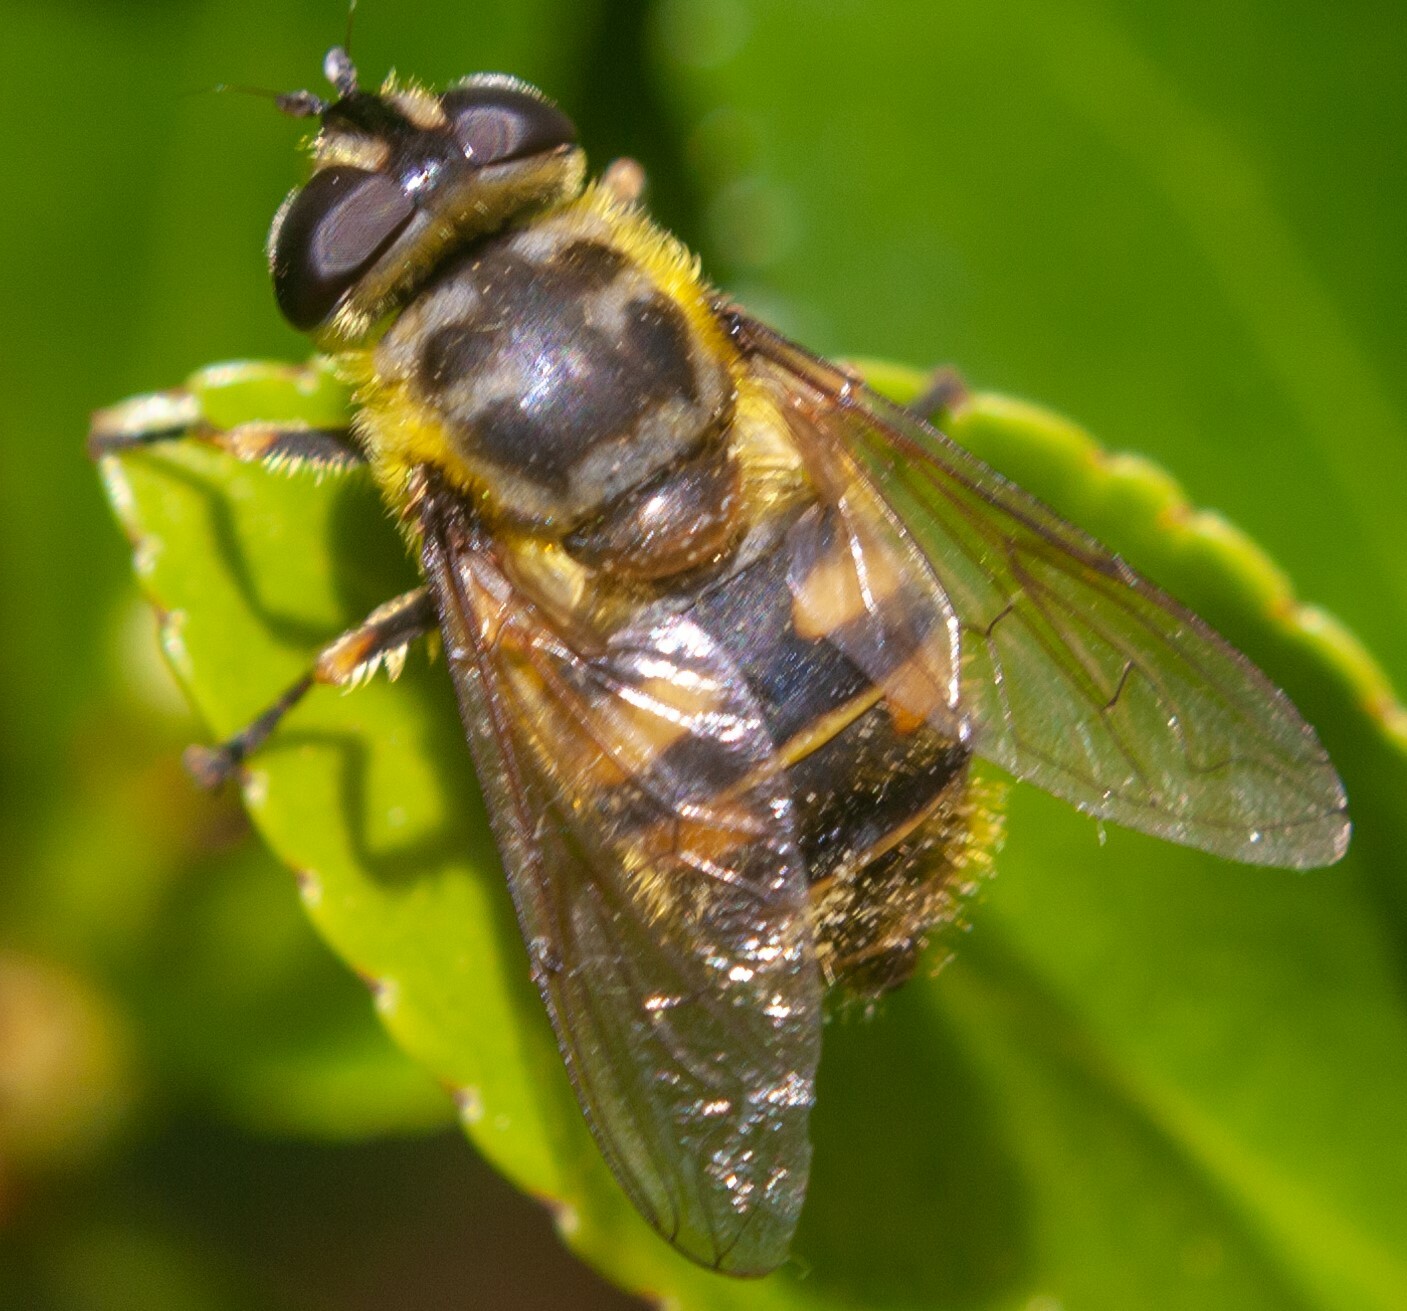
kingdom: Animalia
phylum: Arthropoda
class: Insecta
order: Diptera
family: Syrphidae
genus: Myathropa
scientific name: Myathropa florea
